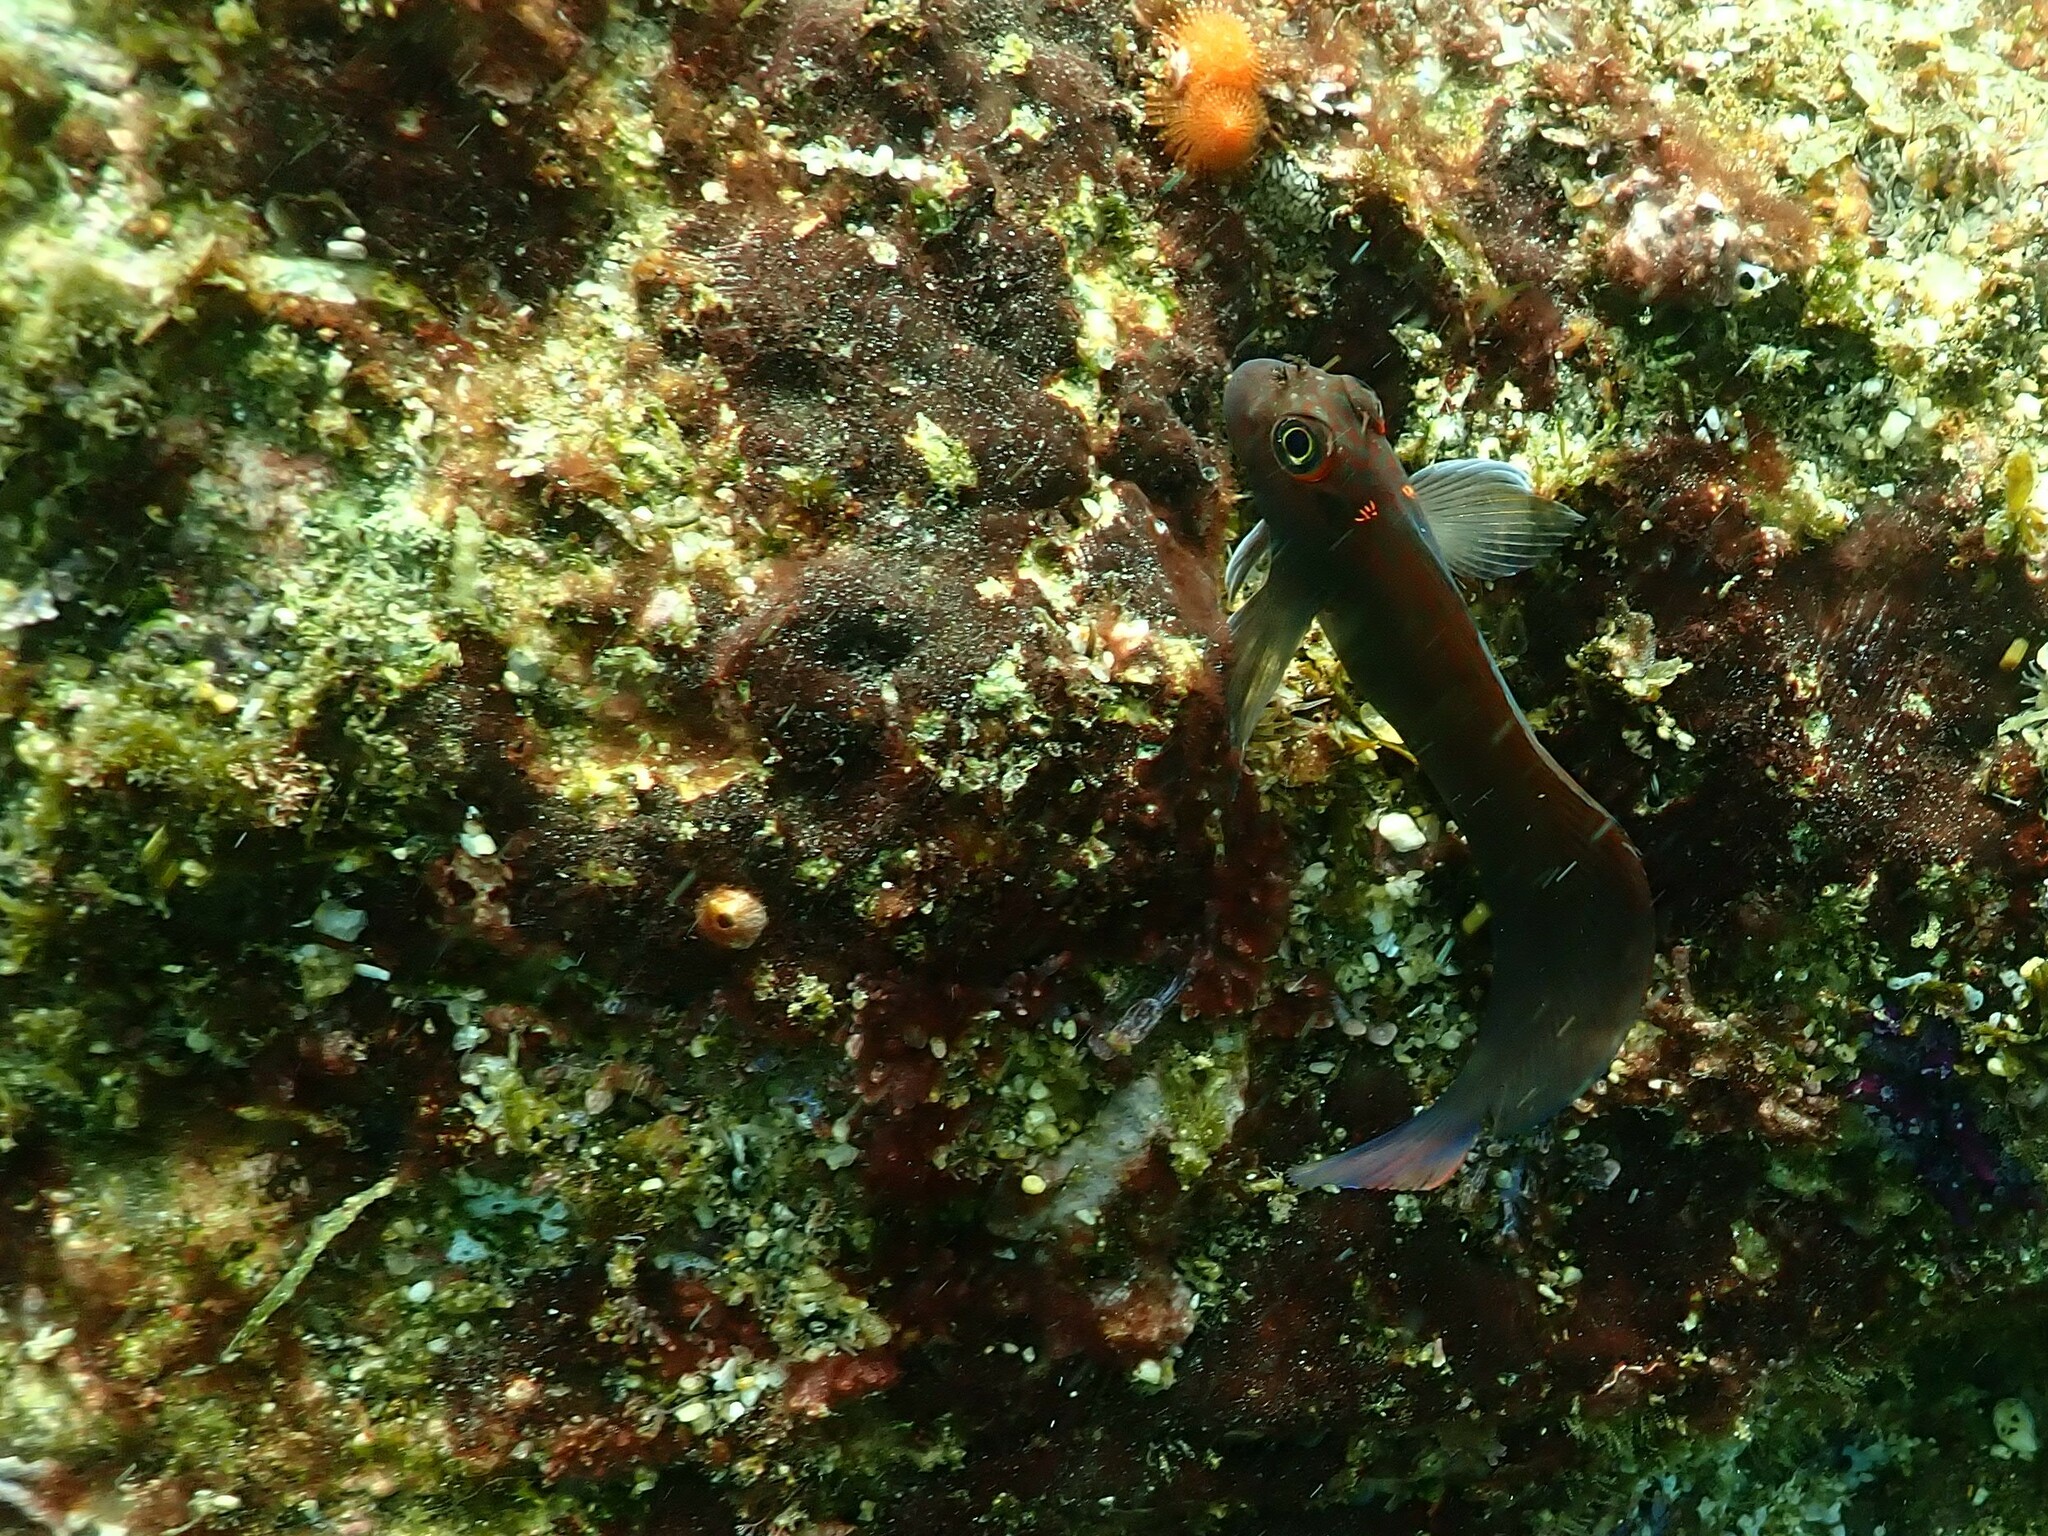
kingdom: Animalia
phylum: Chordata
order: Perciformes
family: Blenniidae
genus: Ophioblennius
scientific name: Ophioblennius steindachneri
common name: Panamic fanged blenny
